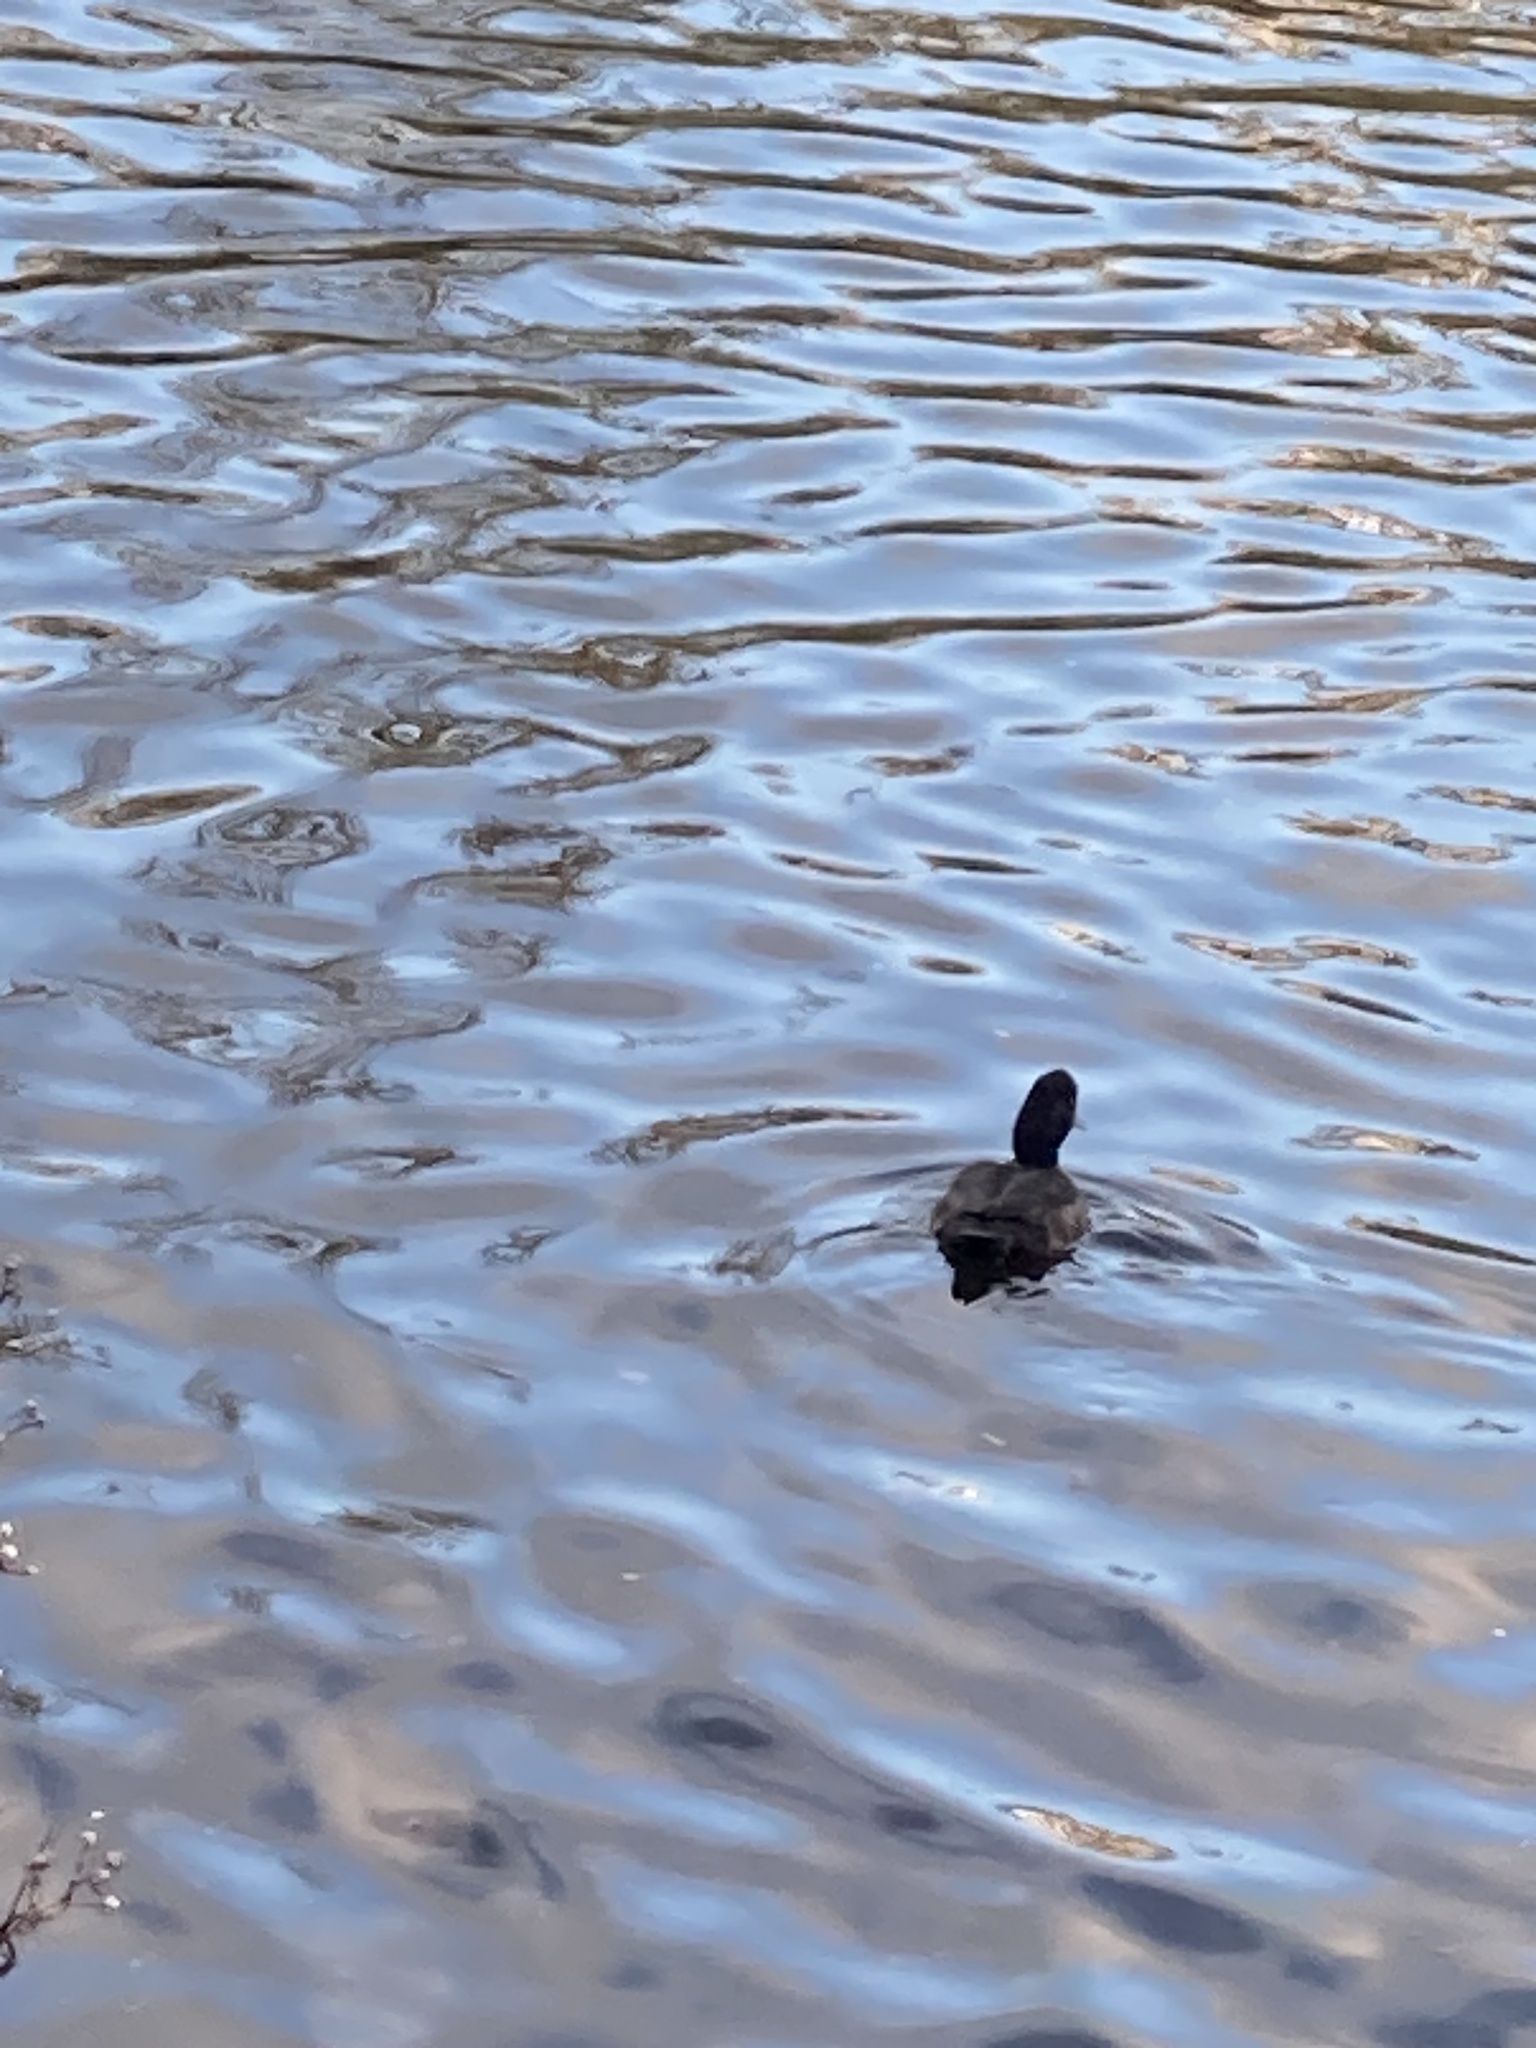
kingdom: Animalia
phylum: Chordata
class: Aves
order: Anseriformes
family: Anatidae
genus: Aythya
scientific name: Aythya fuligula
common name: Tufted duck
